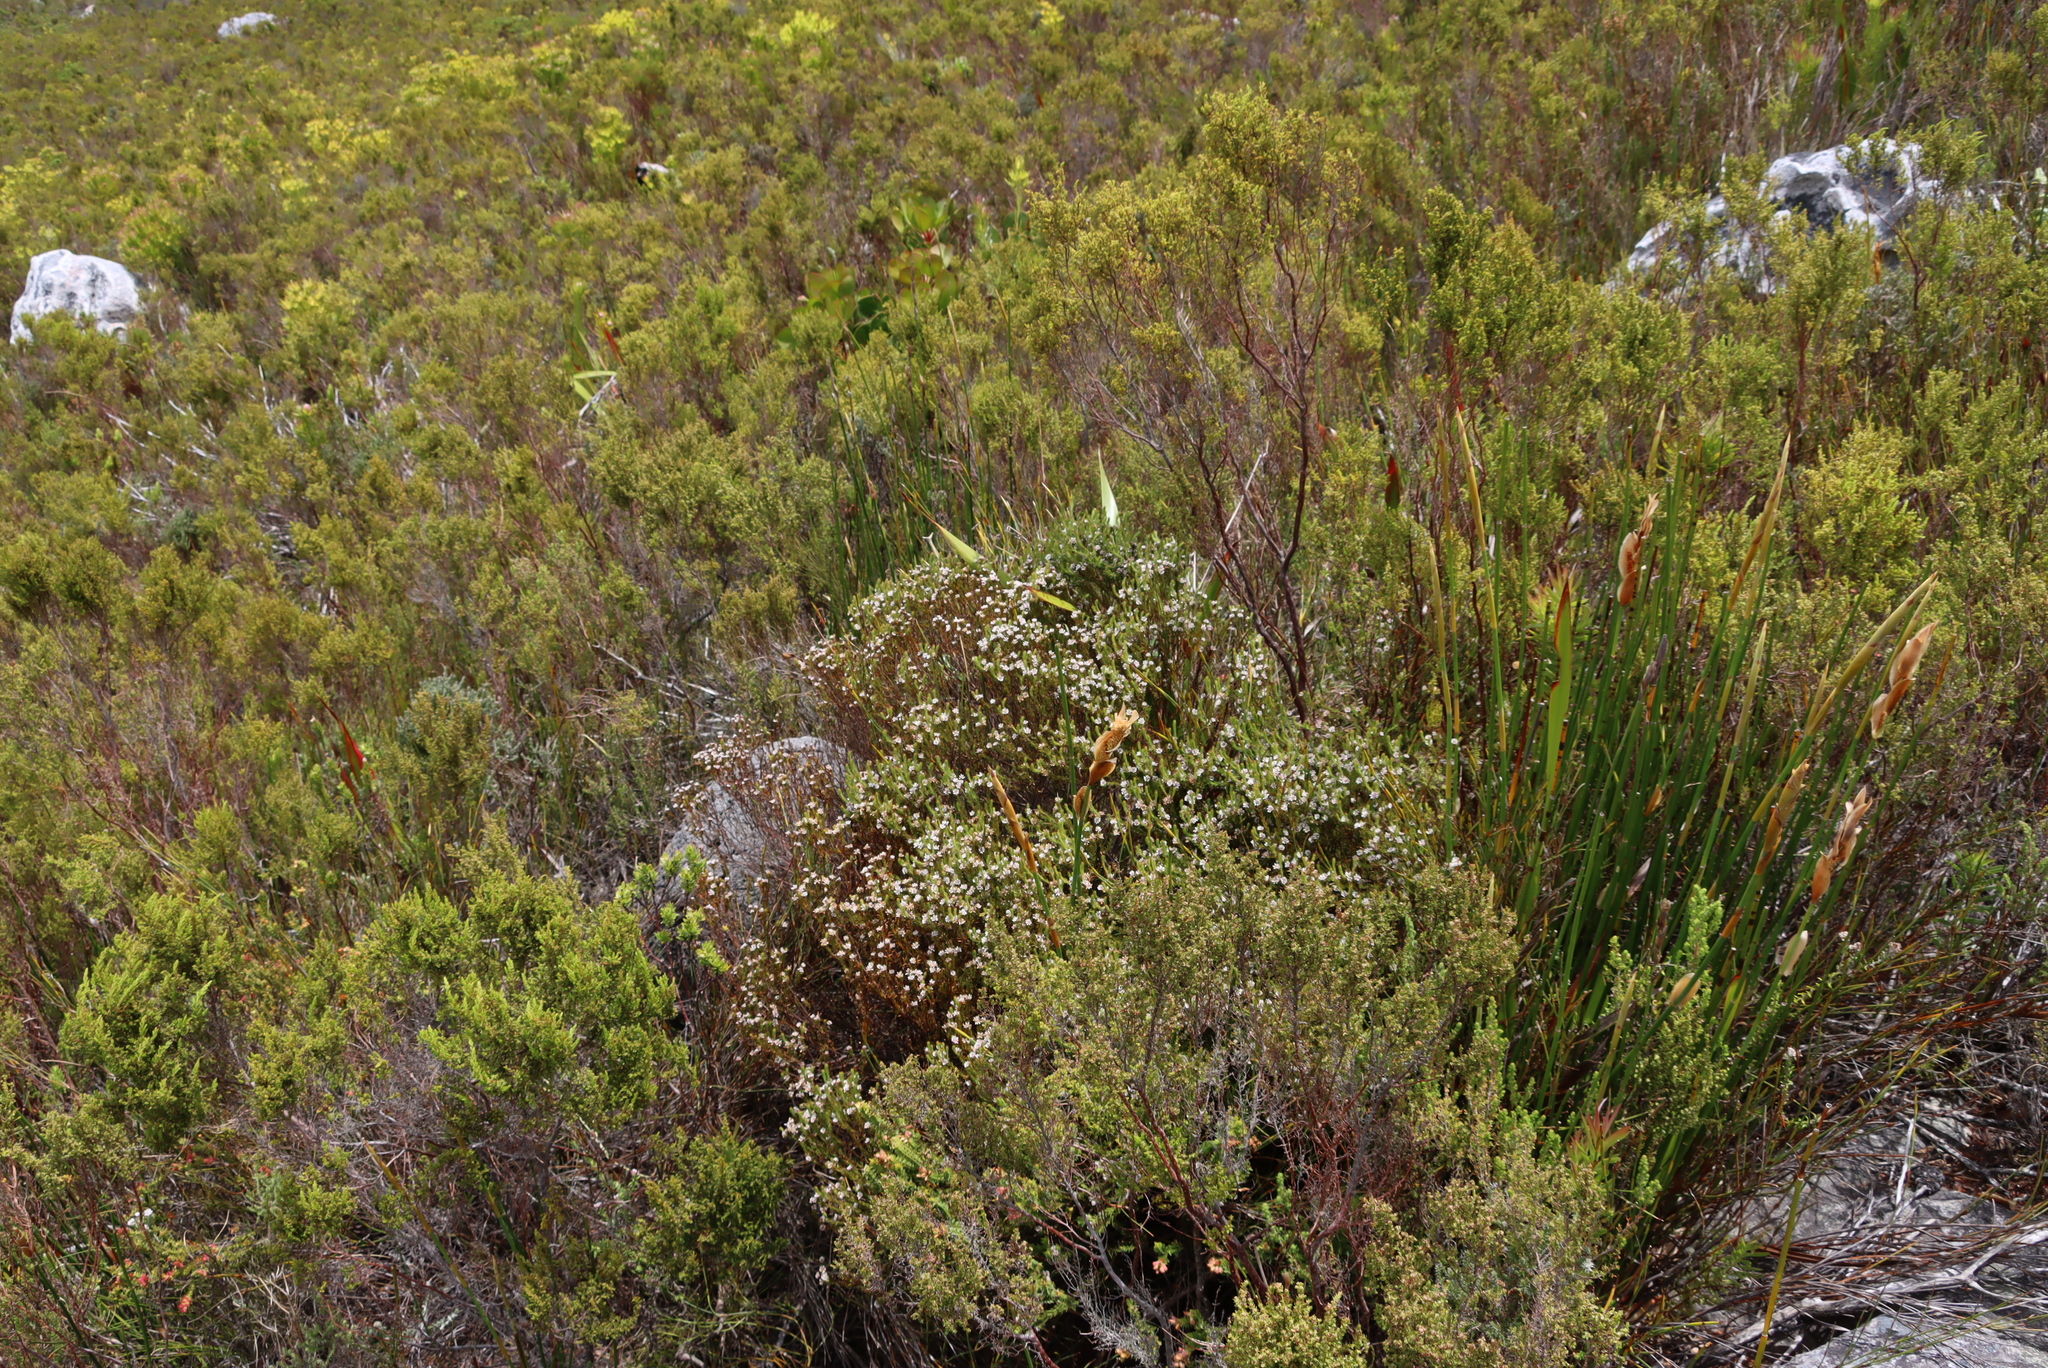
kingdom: Plantae
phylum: Tracheophyta
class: Magnoliopsida
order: Bruniales
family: Bruniaceae
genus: Staavia
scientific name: Staavia radiata
